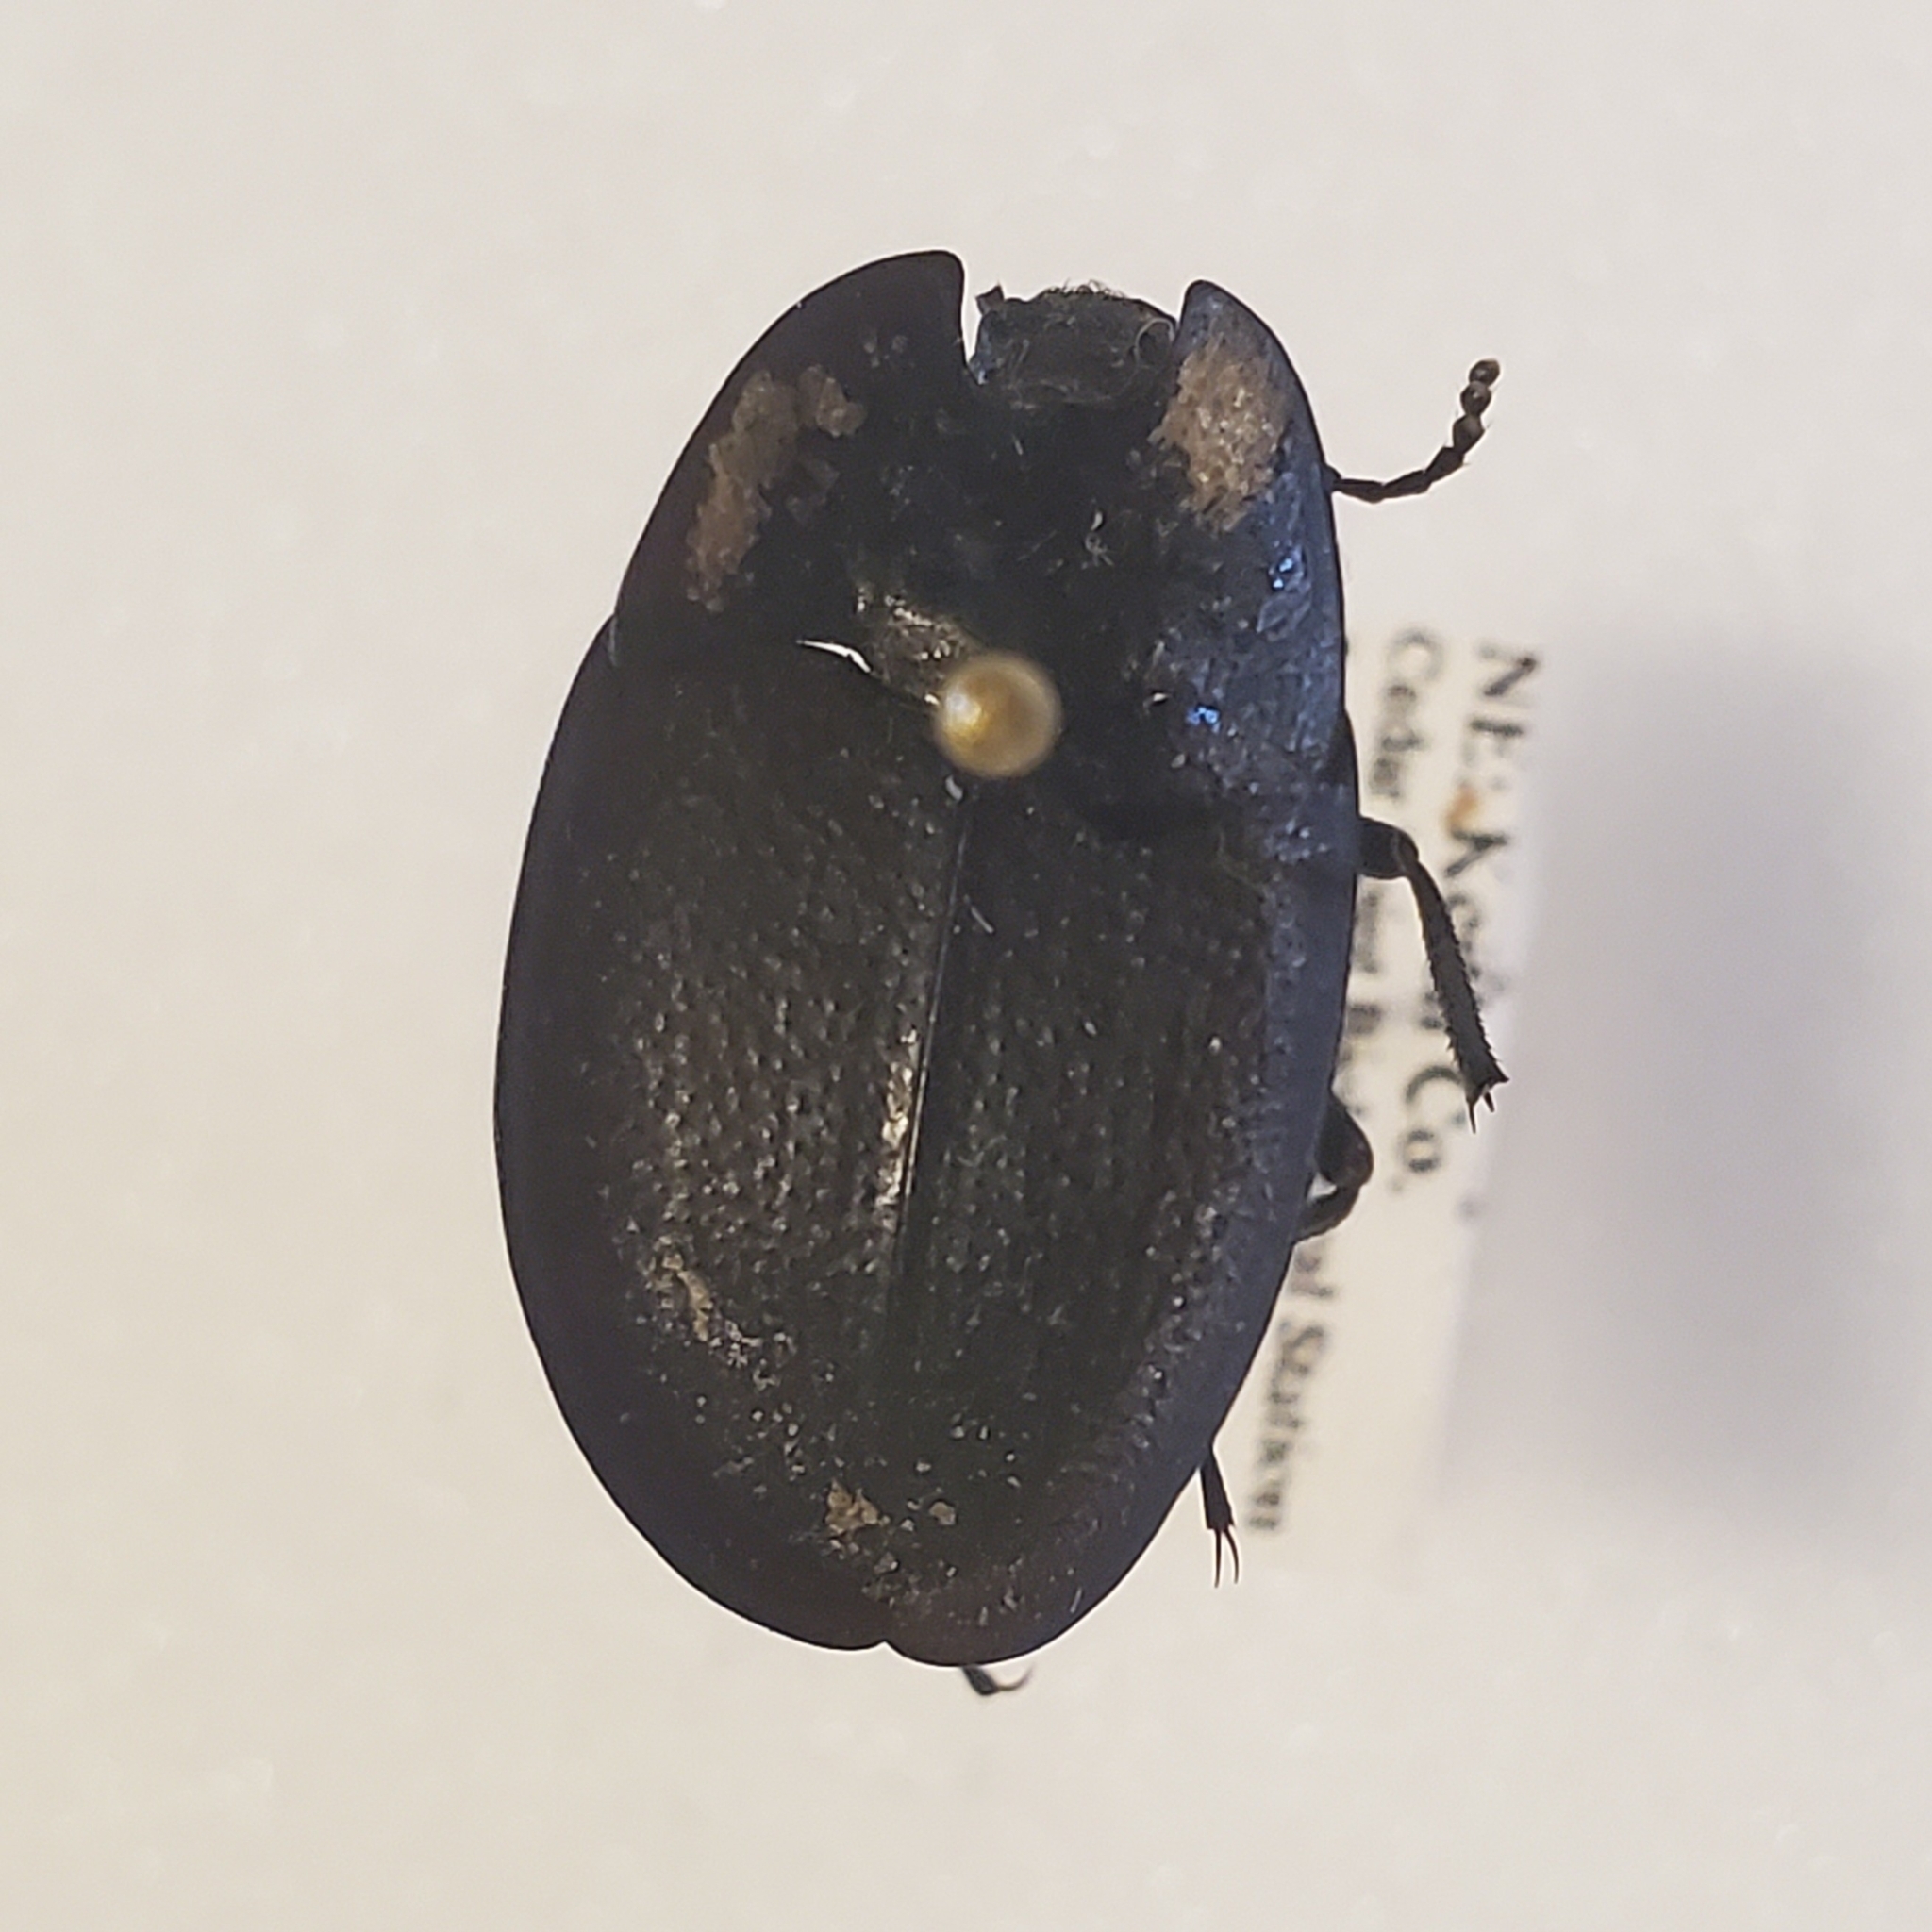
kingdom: Animalia
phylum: Arthropoda
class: Insecta
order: Coleoptera
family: Tenebrionidae
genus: Embaphion
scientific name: Embaphion muricatum
